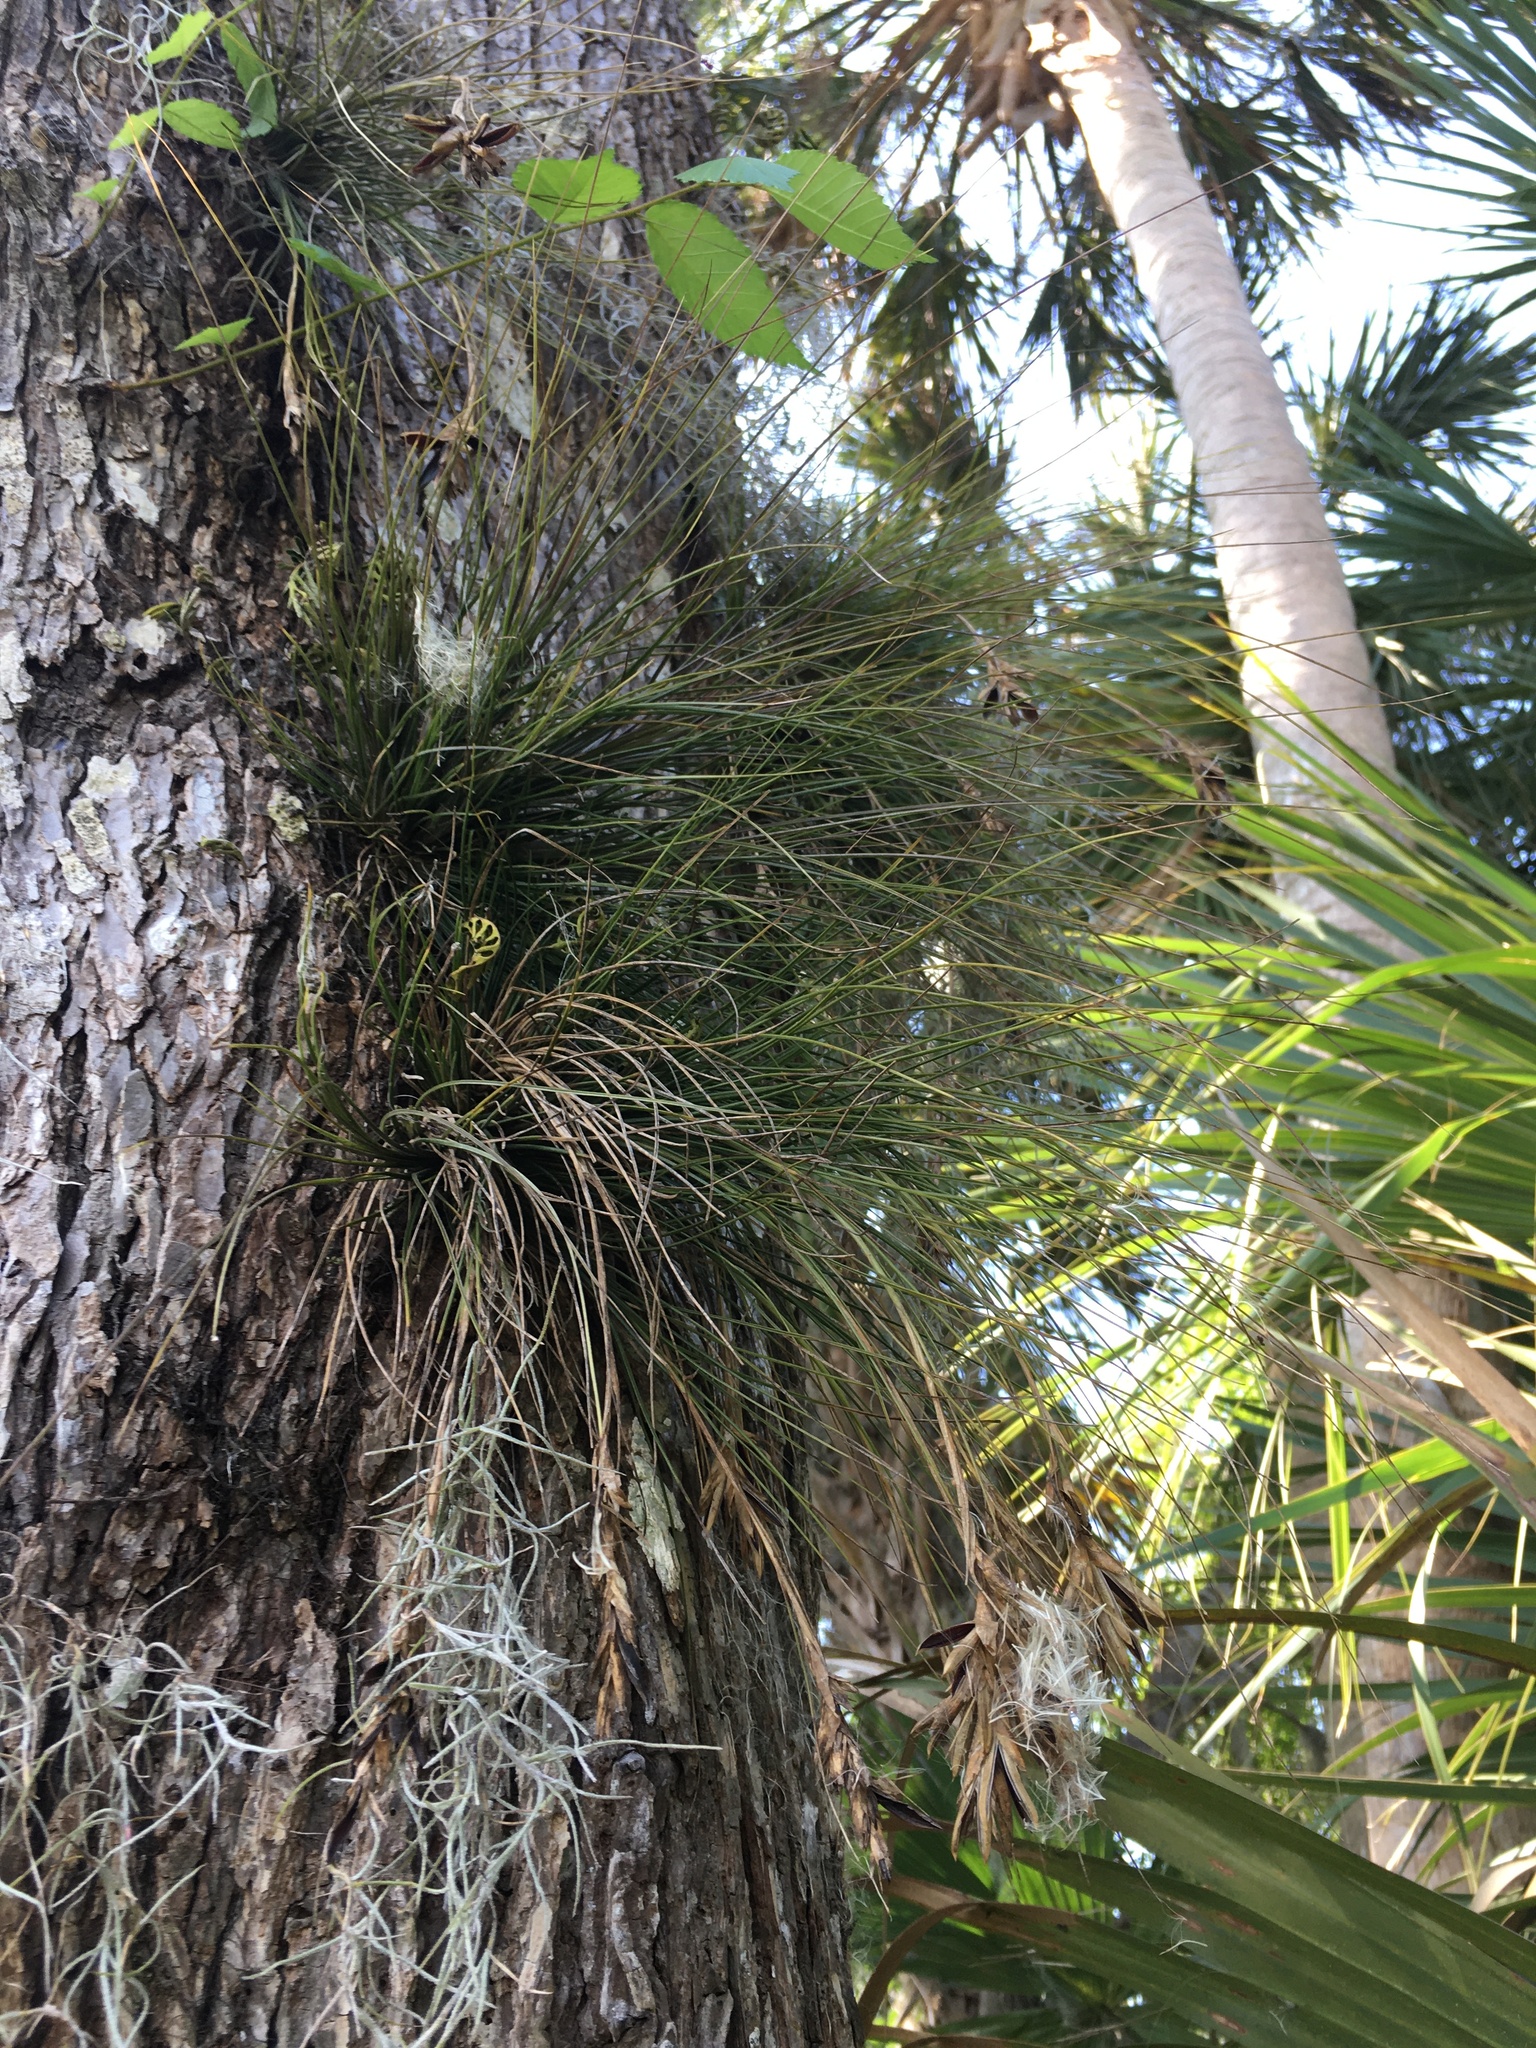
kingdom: Plantae
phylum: Tracheophyta
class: Liliopsida
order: Poales
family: Bromeliaceae
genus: Tillandsia
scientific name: Tillandsia setacea
